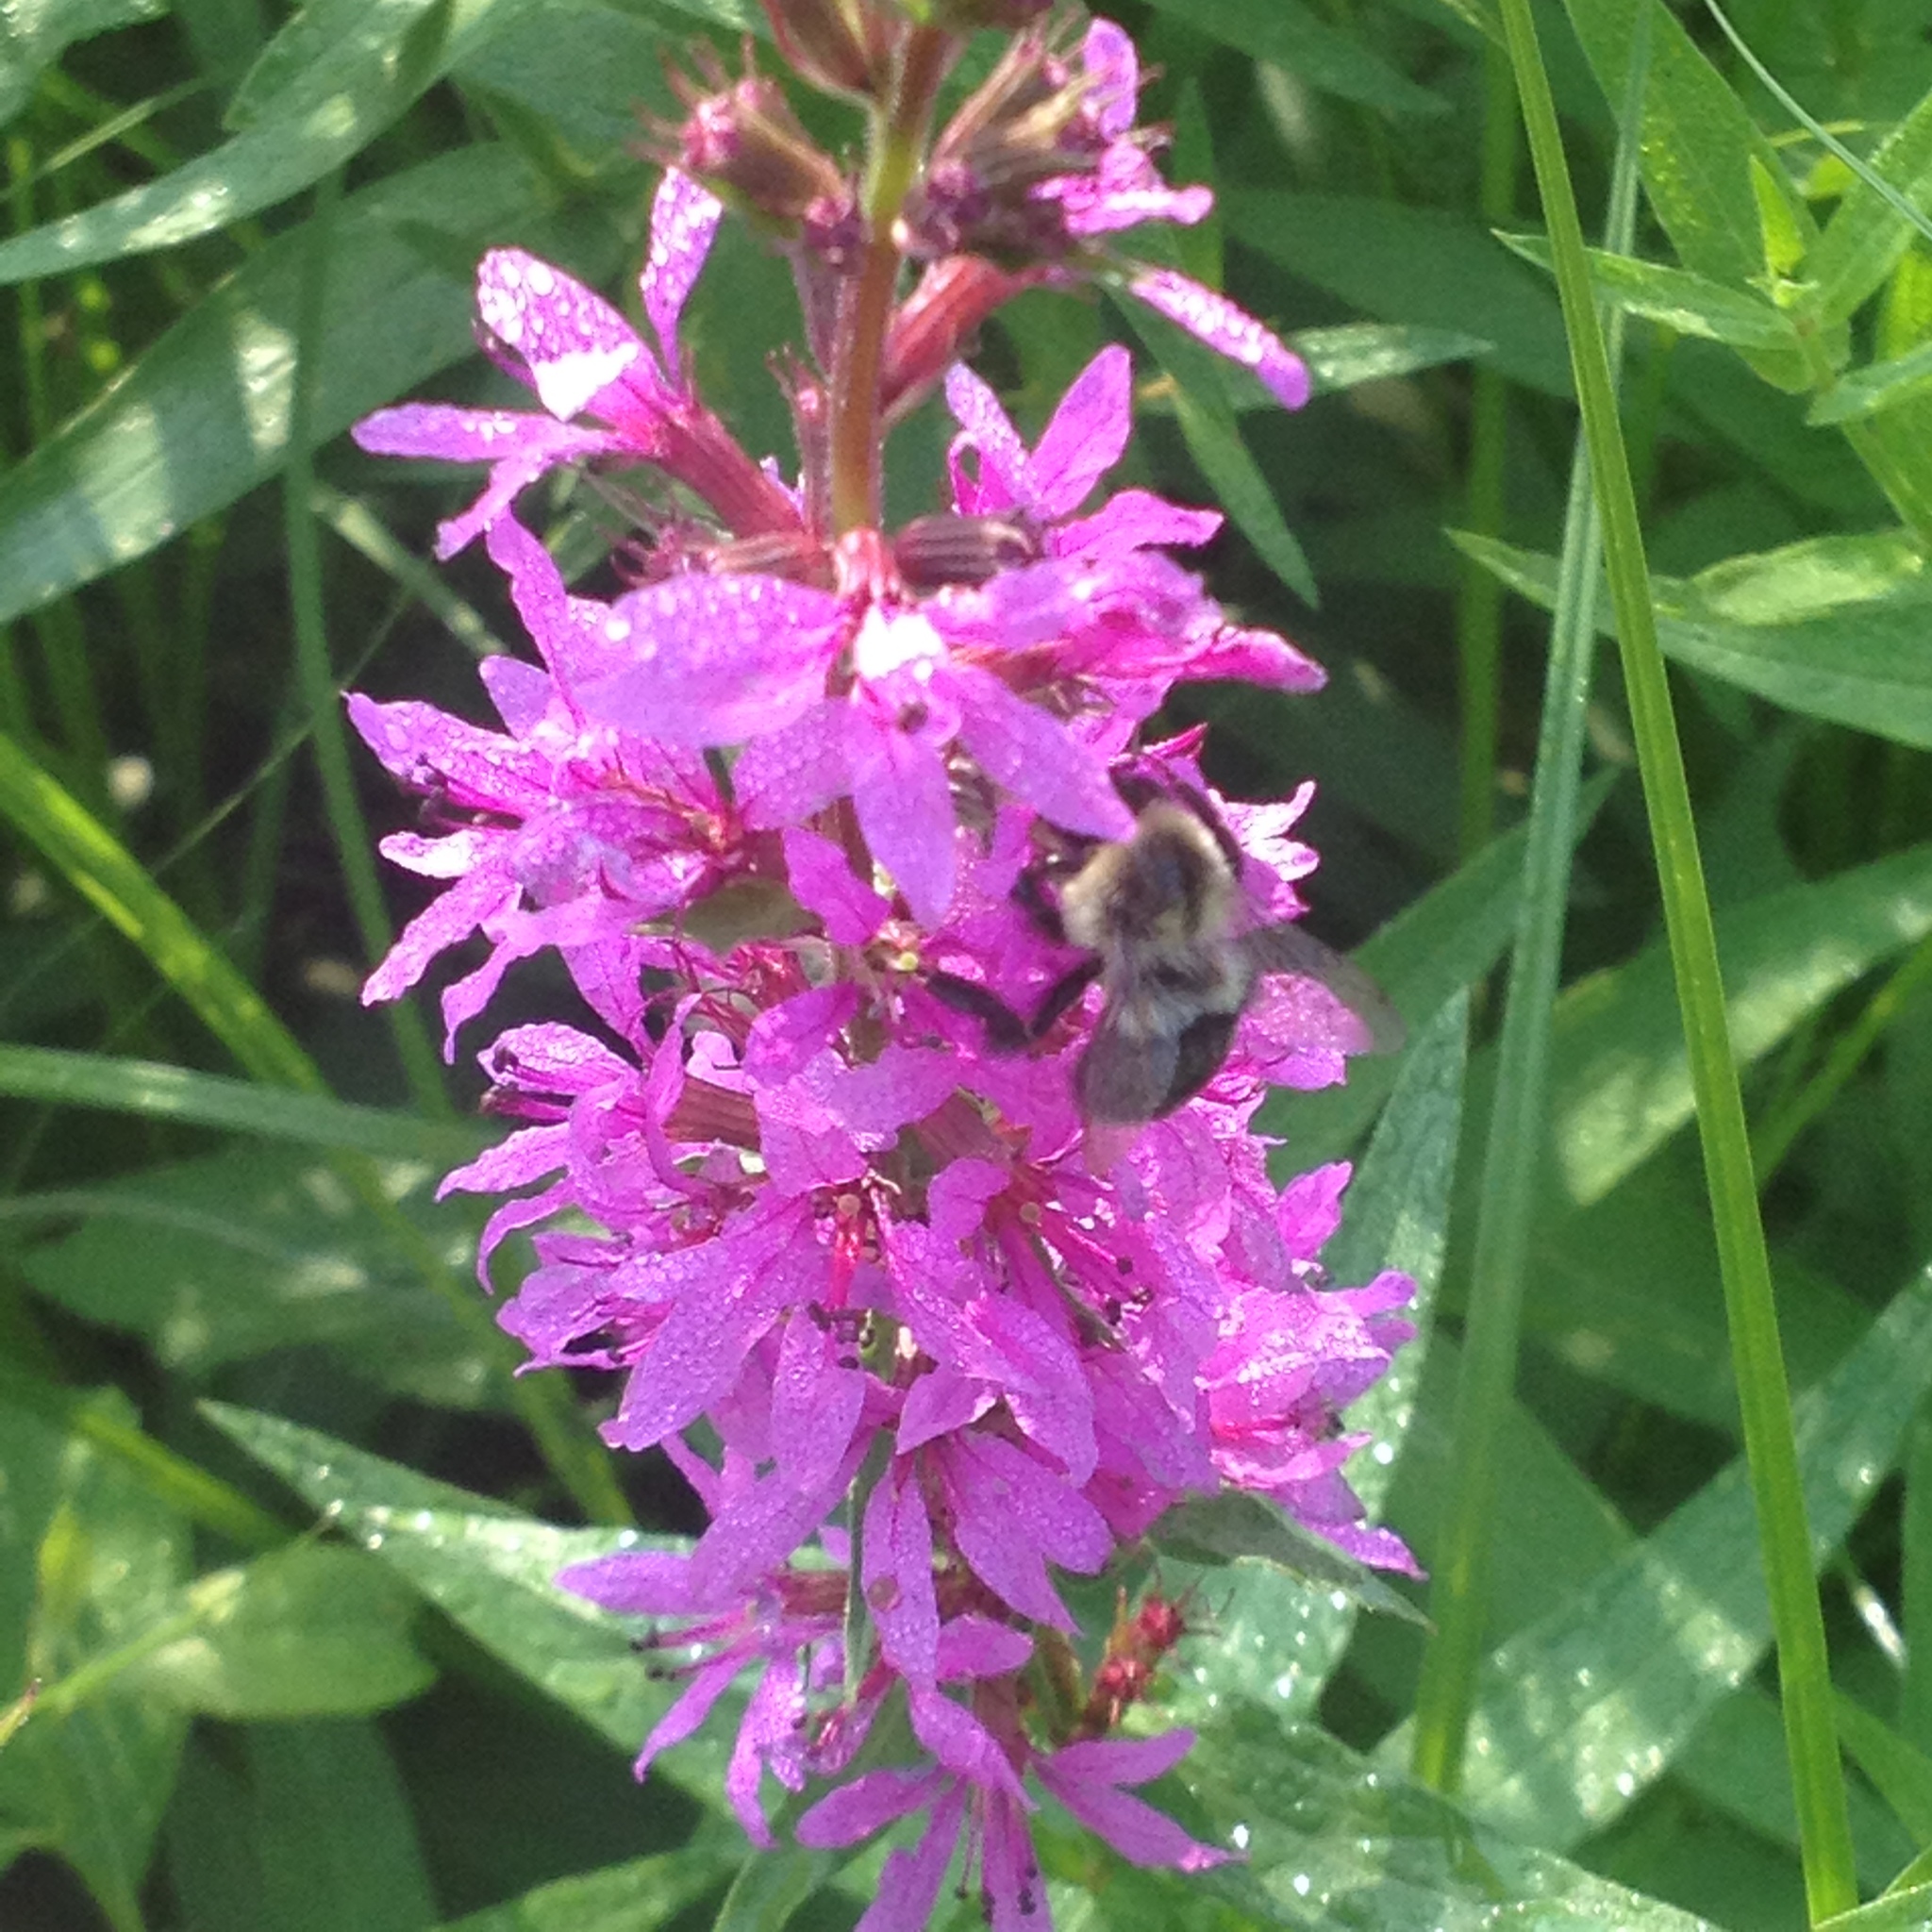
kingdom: Animalia
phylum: Arthropoda
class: Insecta
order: Hymenoptera
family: Apidae
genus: Bombus
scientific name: Bombus impatiens
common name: Common eastern bumble bee
